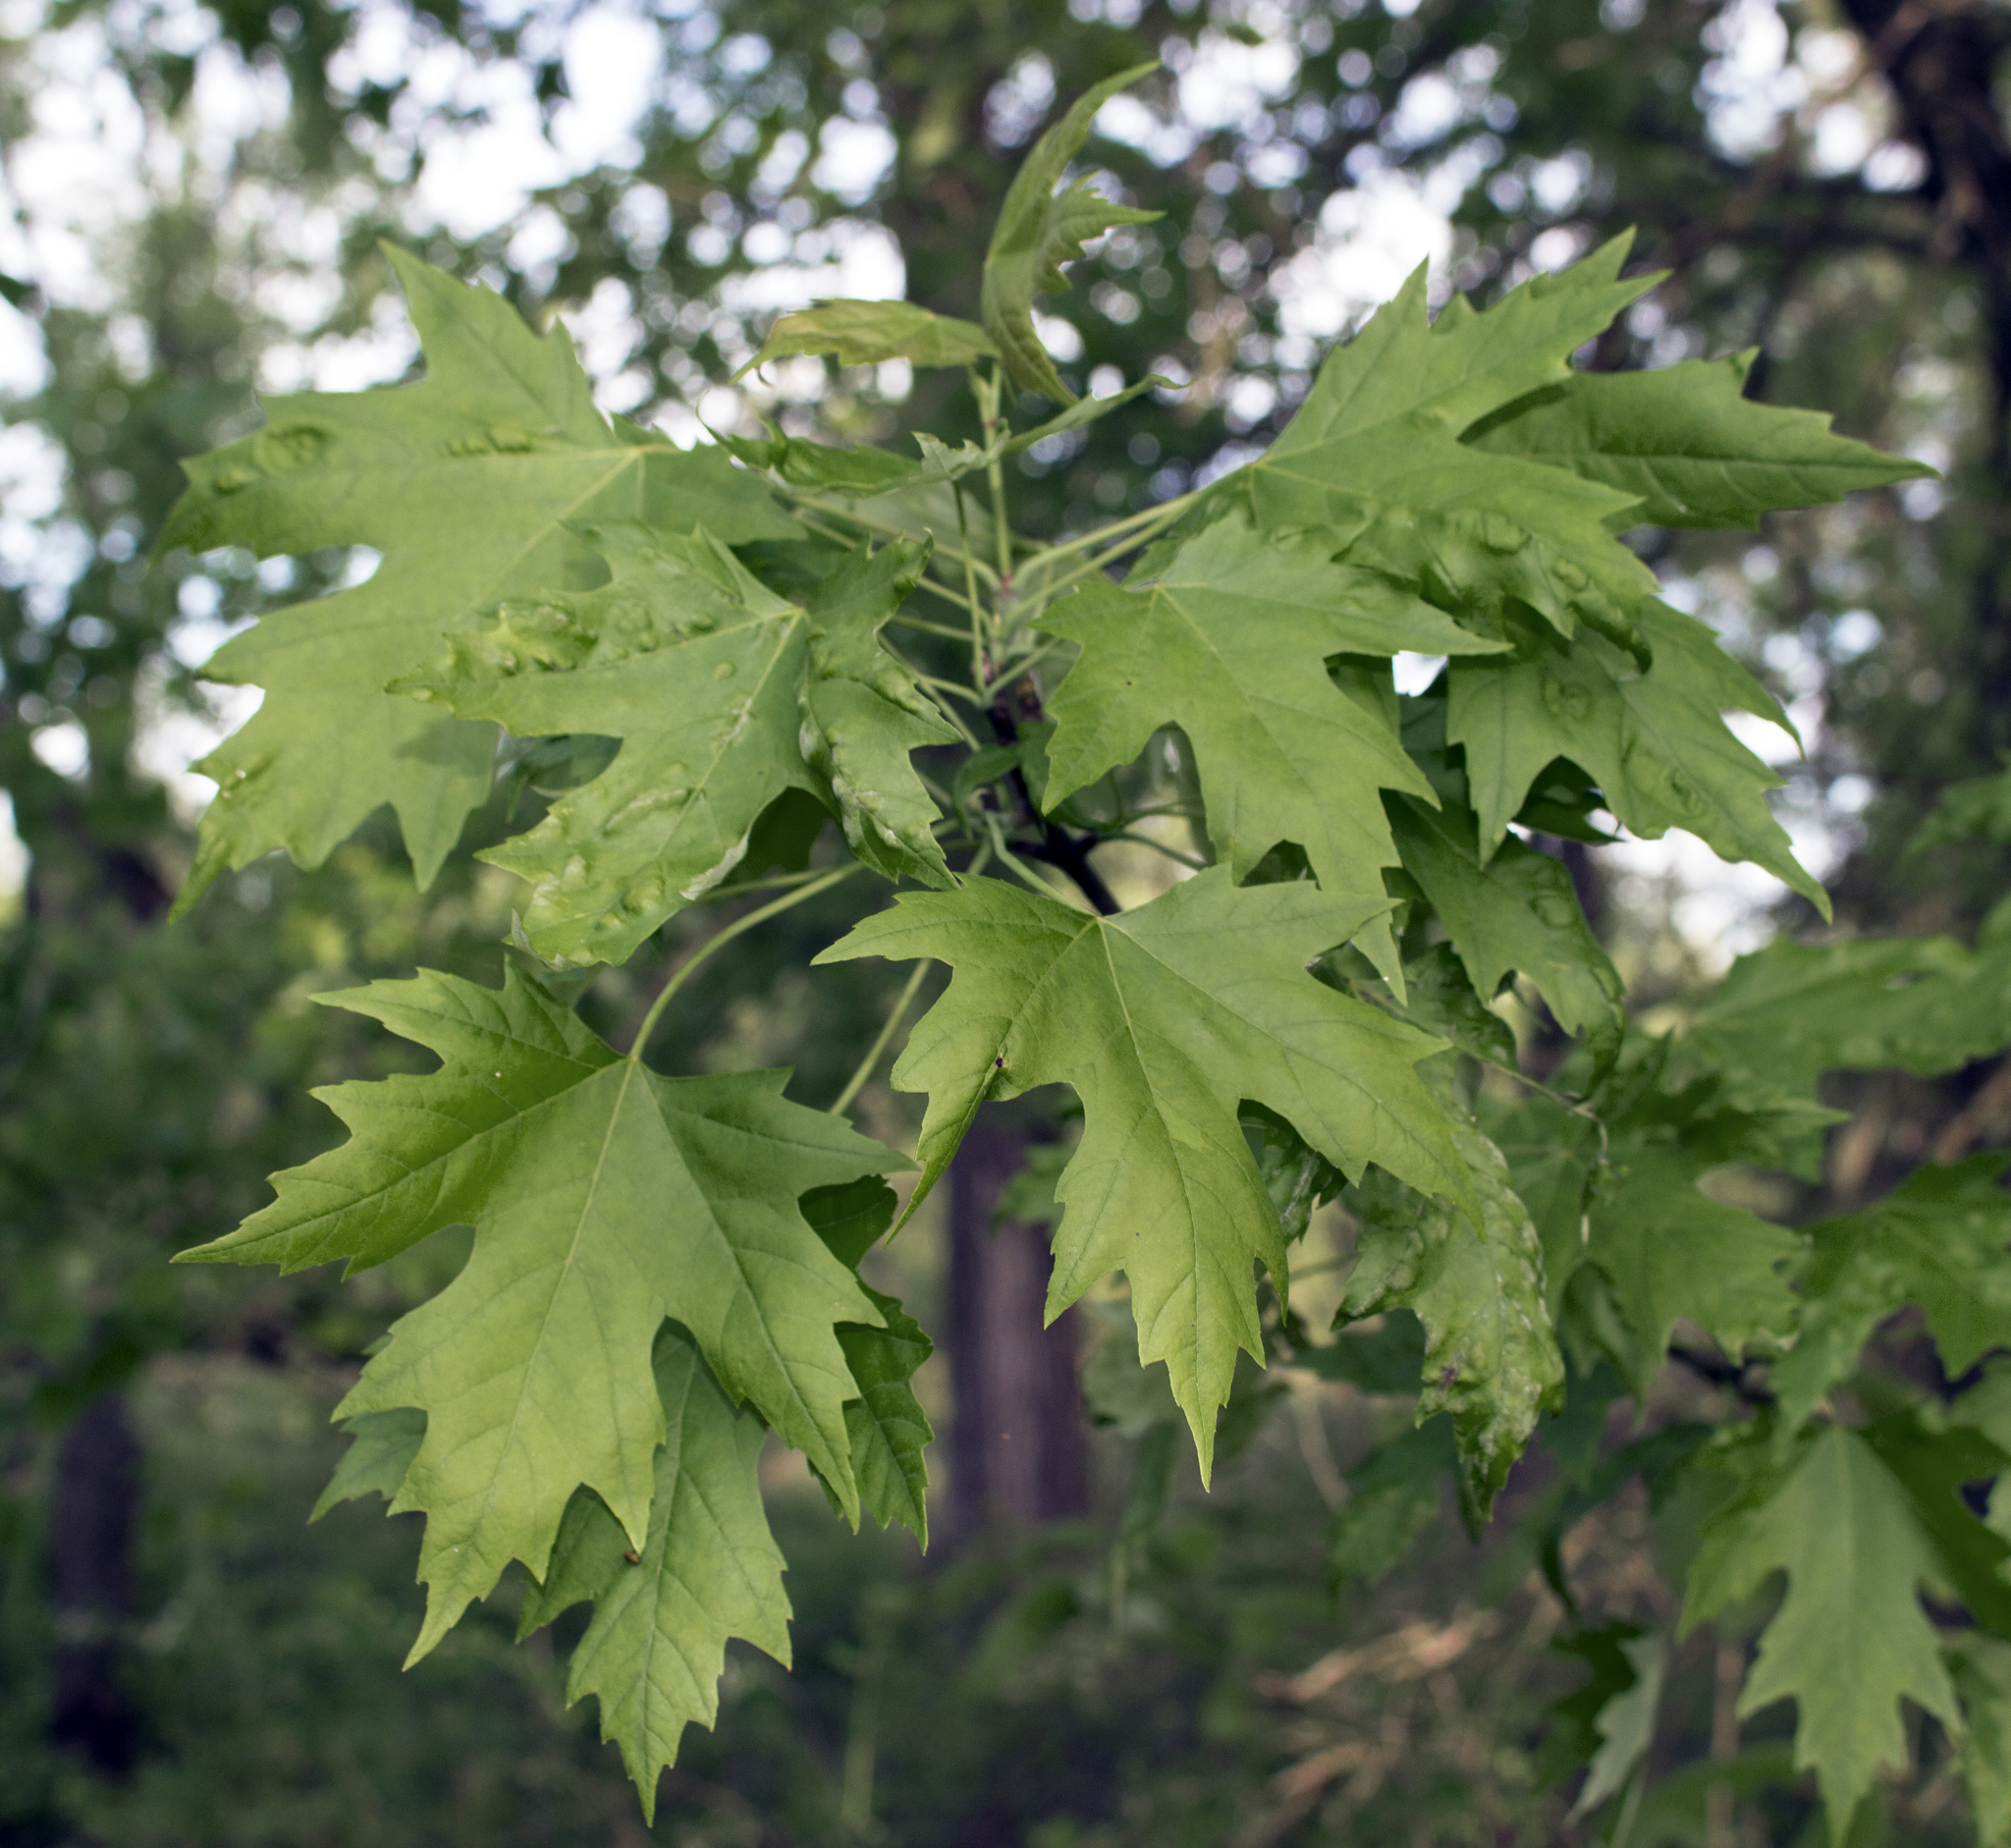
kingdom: Plantae
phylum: Tracheophyta
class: Magnoliopsida
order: Sapindales
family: Sapindaceae
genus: Acer
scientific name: Acer saccharinum
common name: Silver maple
